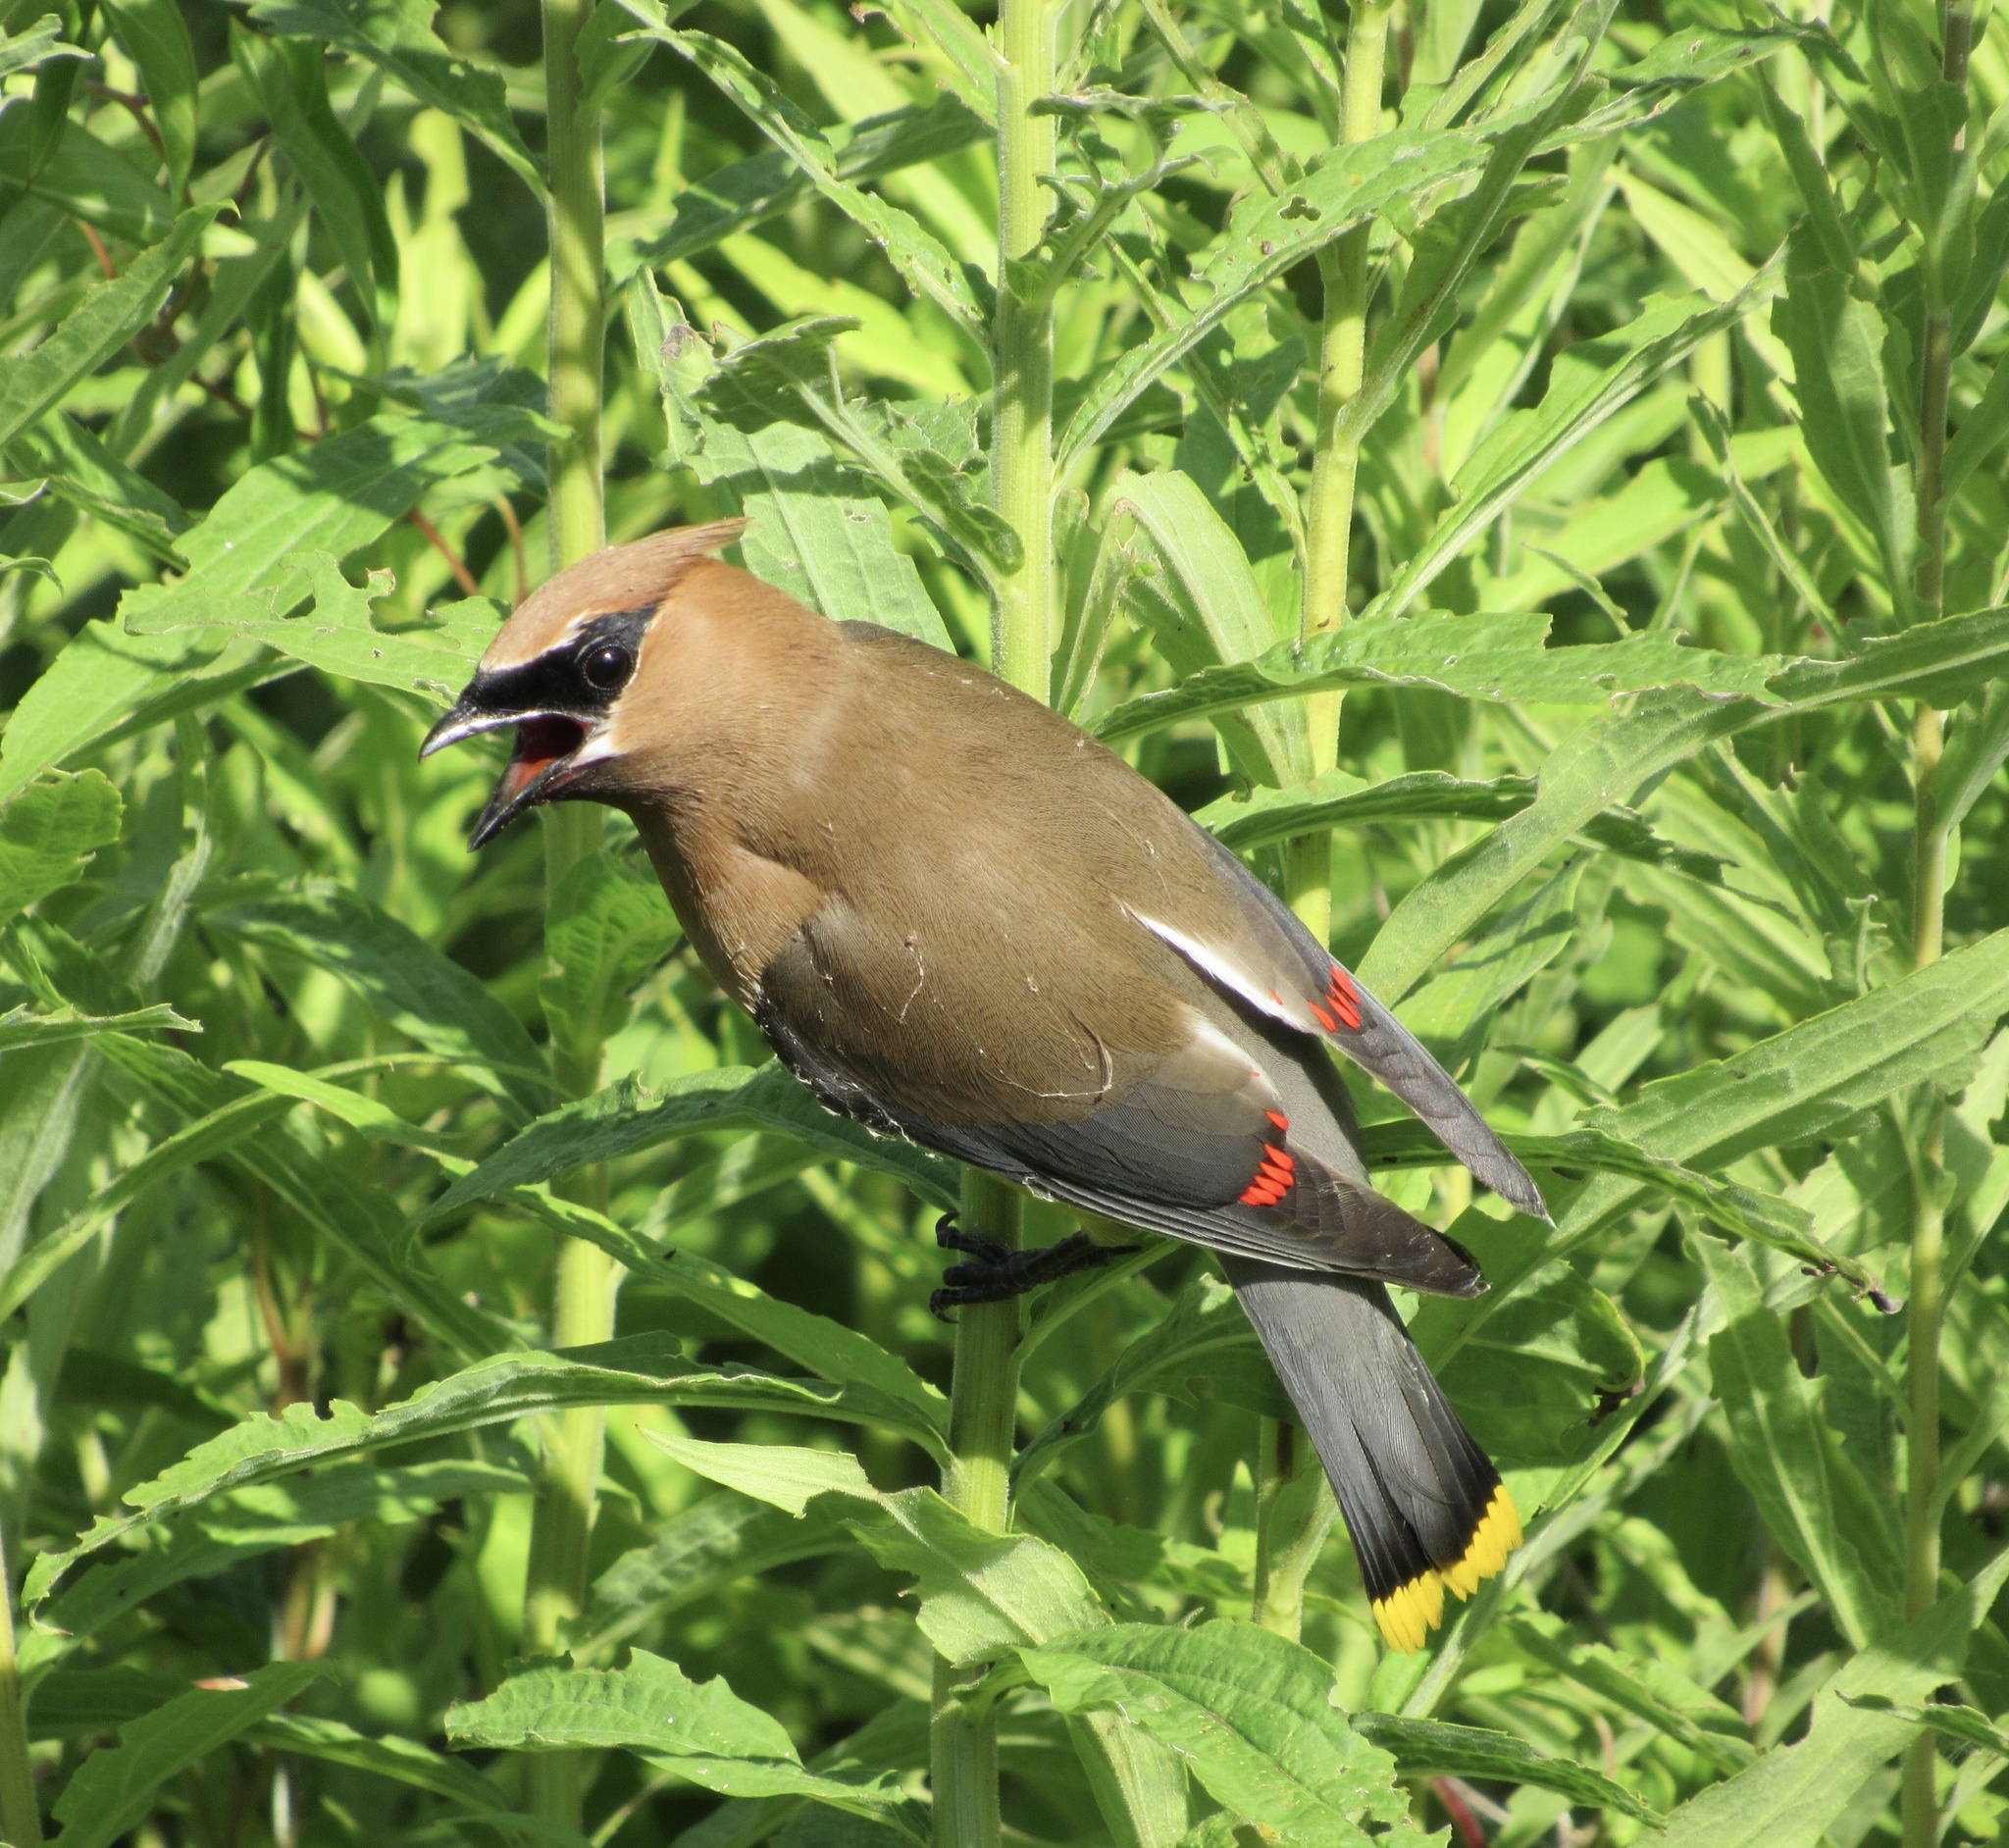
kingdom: Animalia
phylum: Chordata
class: Aves
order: Passeriformes
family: Bombycillidae
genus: Bombycilla
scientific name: Bombycilla cedrorum
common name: Cedar waxwing
